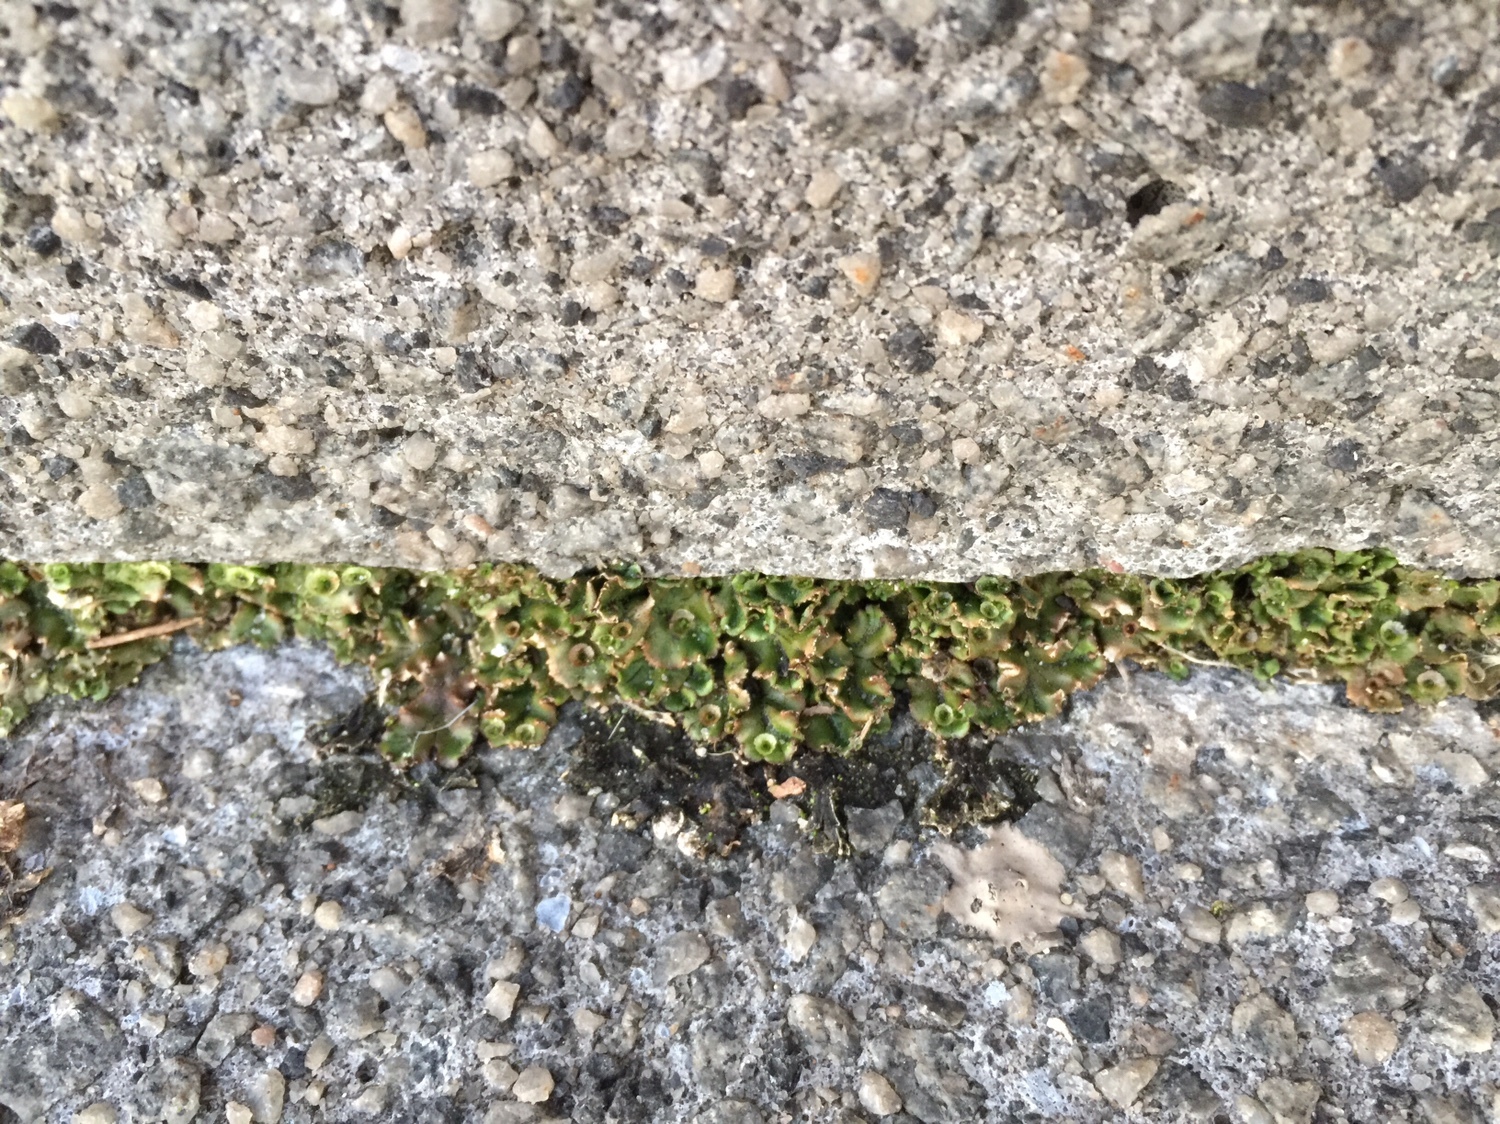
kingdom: Plantae
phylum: Marchantiophyta
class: Marchantiopsida
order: Marchantiales
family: Marchantiaceae
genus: Marchantia
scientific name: Marchantia polymorpha
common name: Common liverwort
